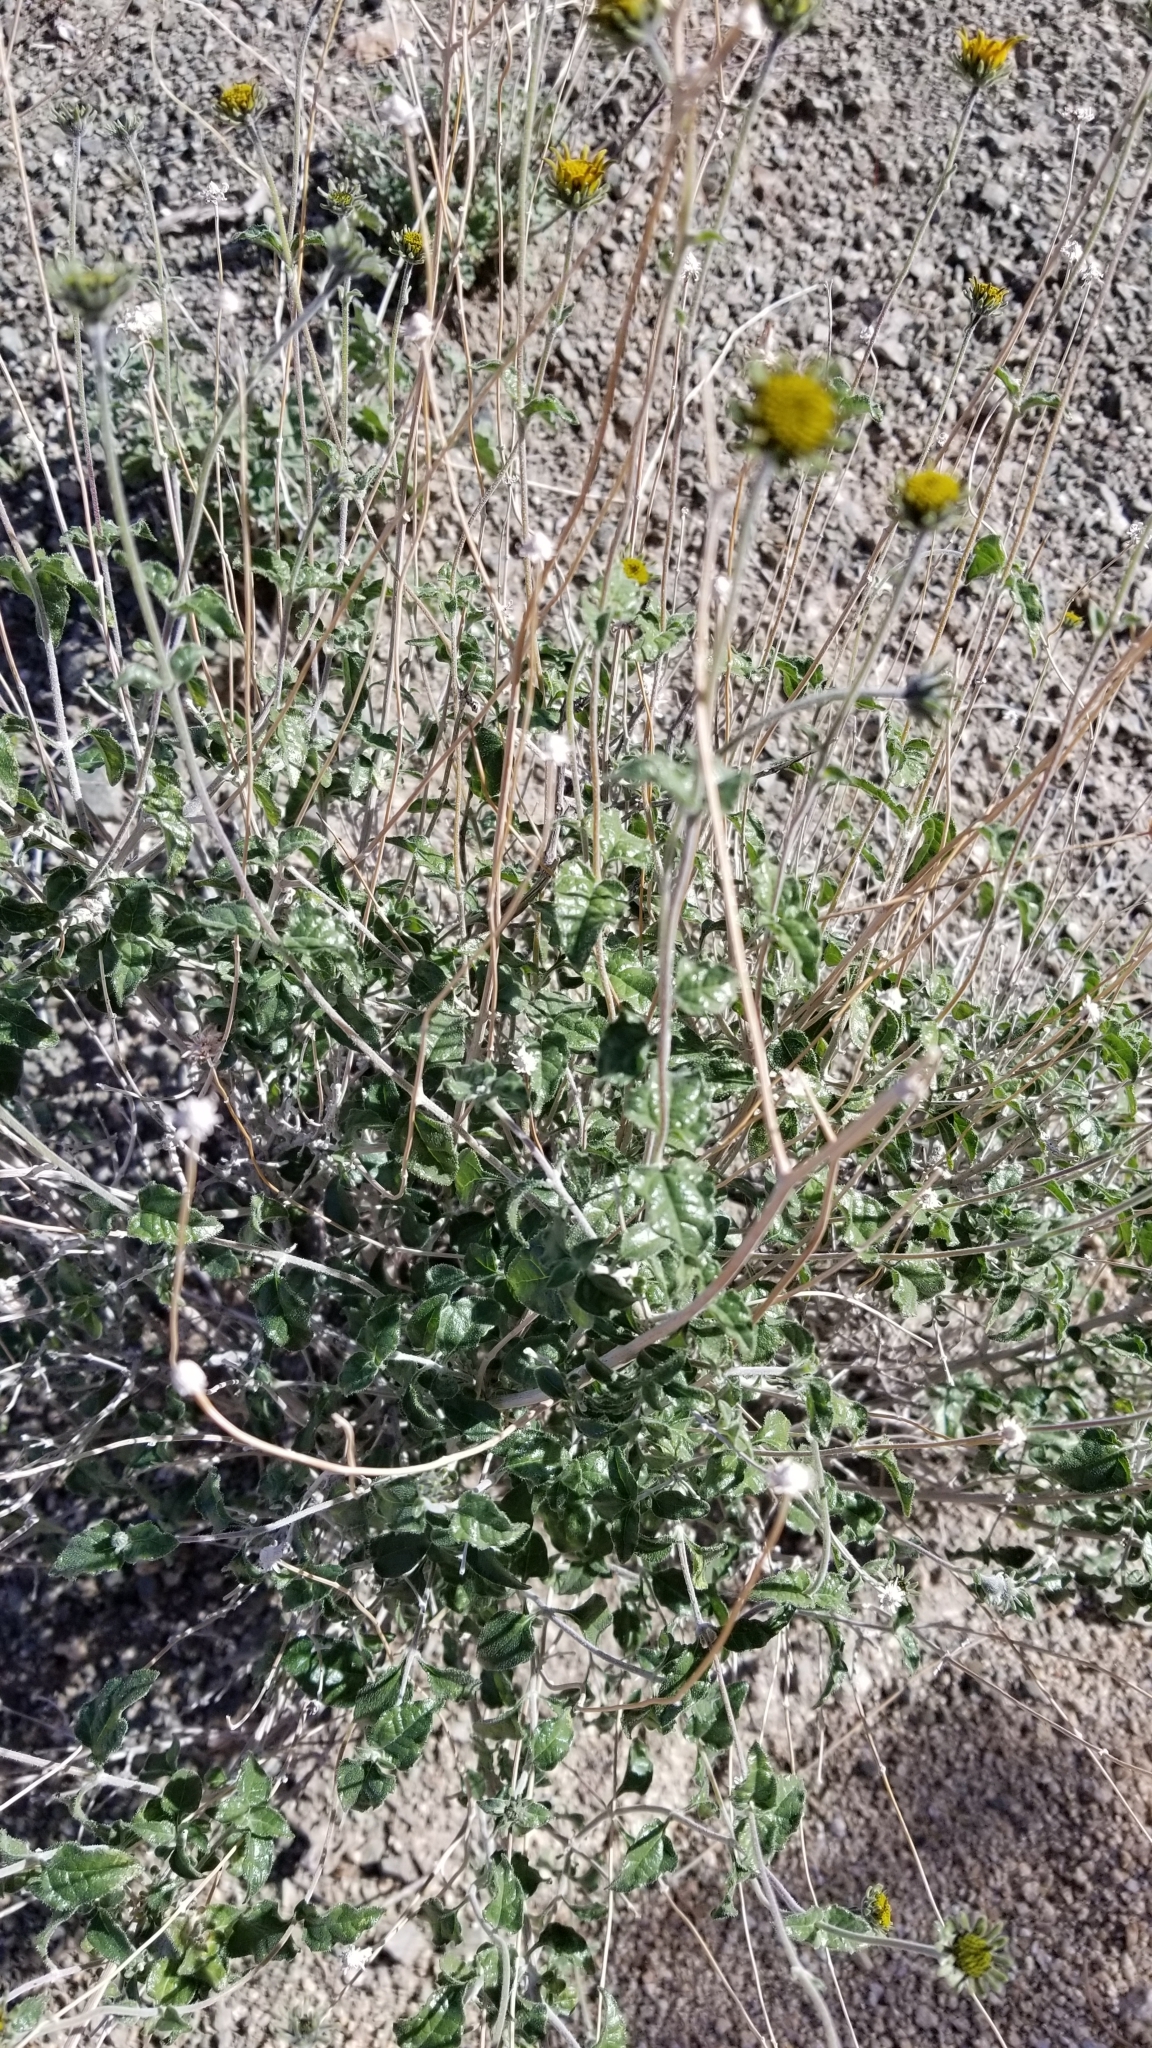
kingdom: Plantae
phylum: Tracheophyta
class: Magnoliopsida
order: Asterales
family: Asteraceae
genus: Bahiopsis
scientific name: Bahiopsis parishii
